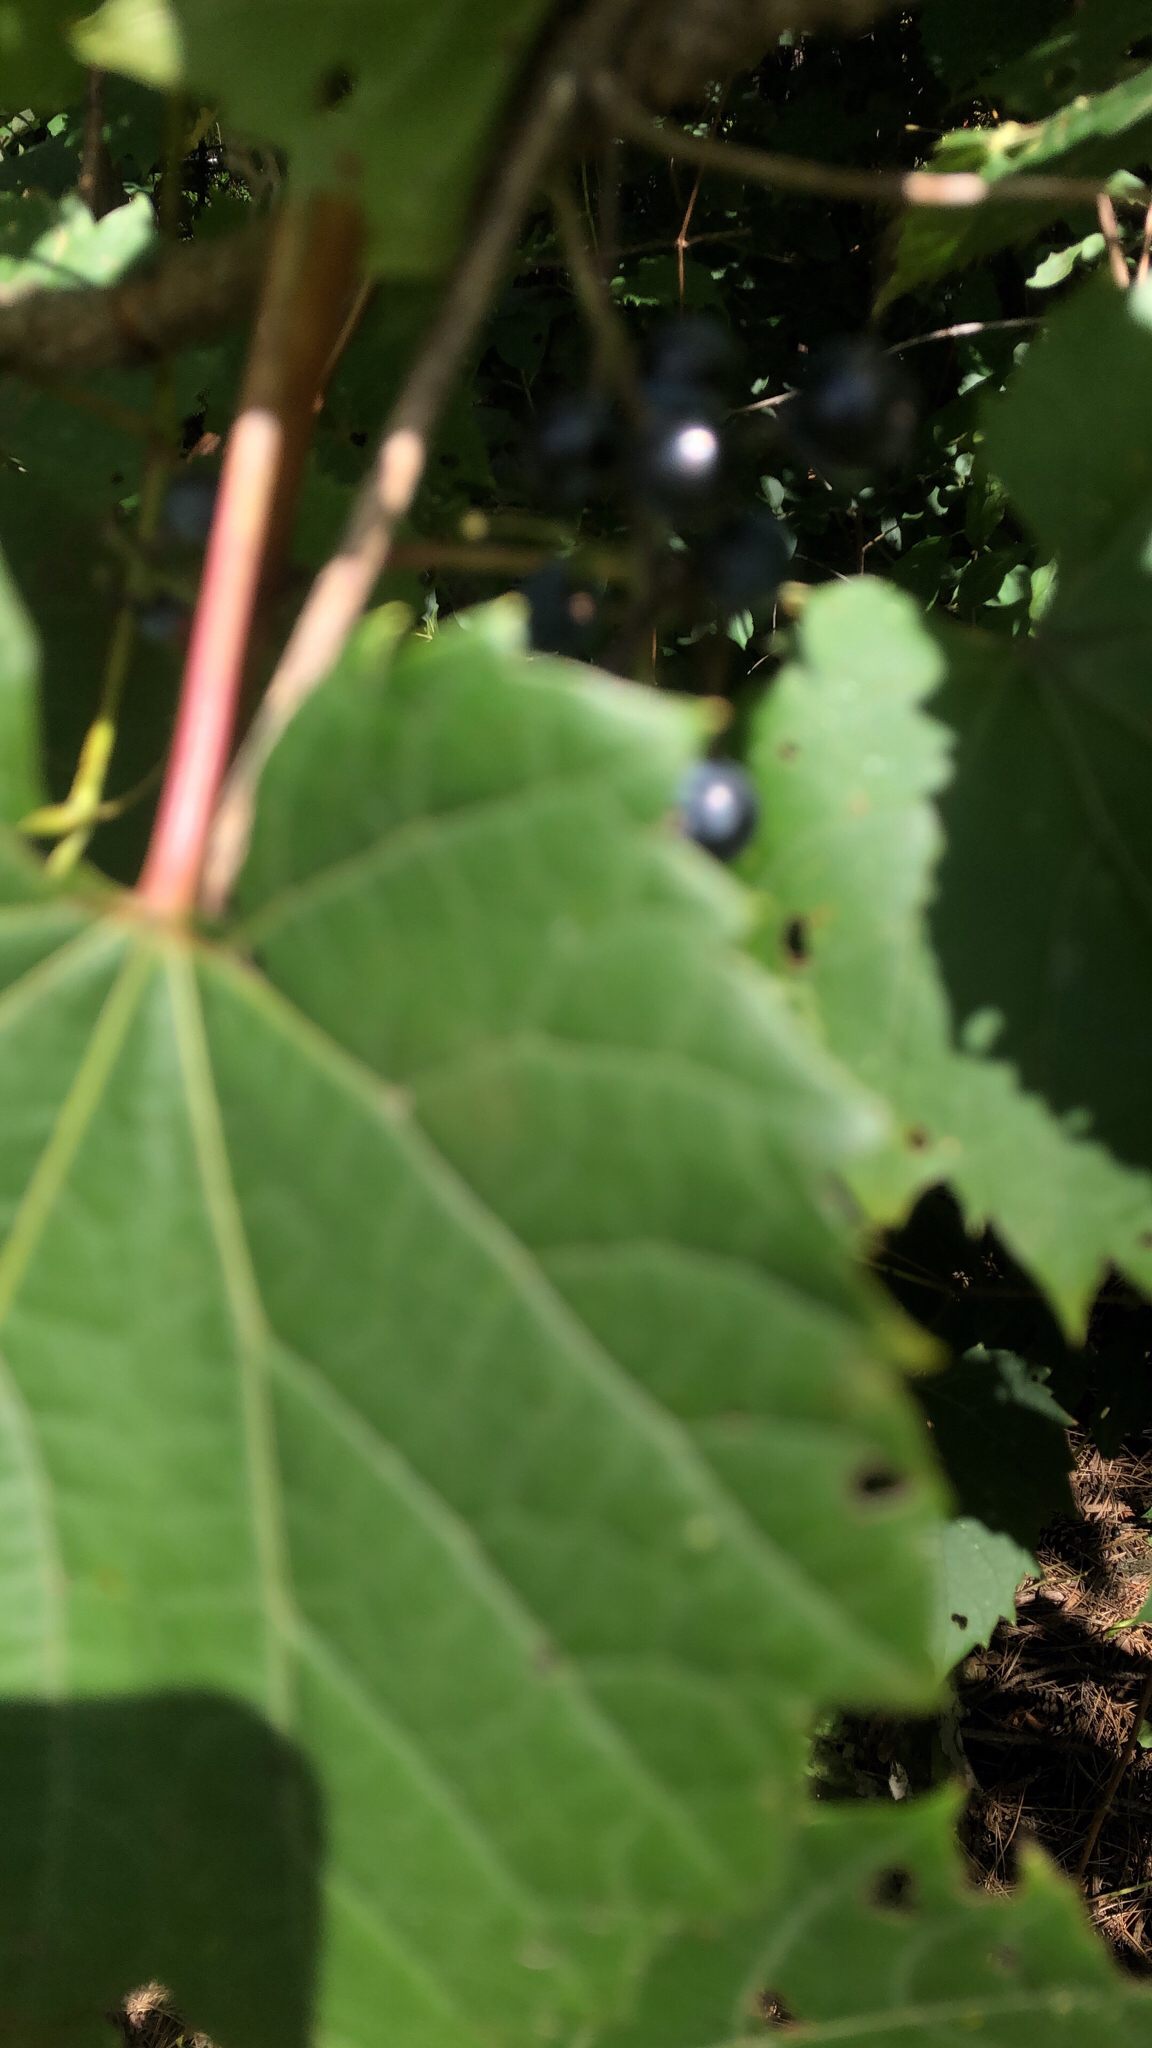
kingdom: Plantae
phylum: Tracheophyta
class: Magnoliopsida
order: Vitales
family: Vitaceae
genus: Vitis
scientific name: Vitis riparia
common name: Frost grape
